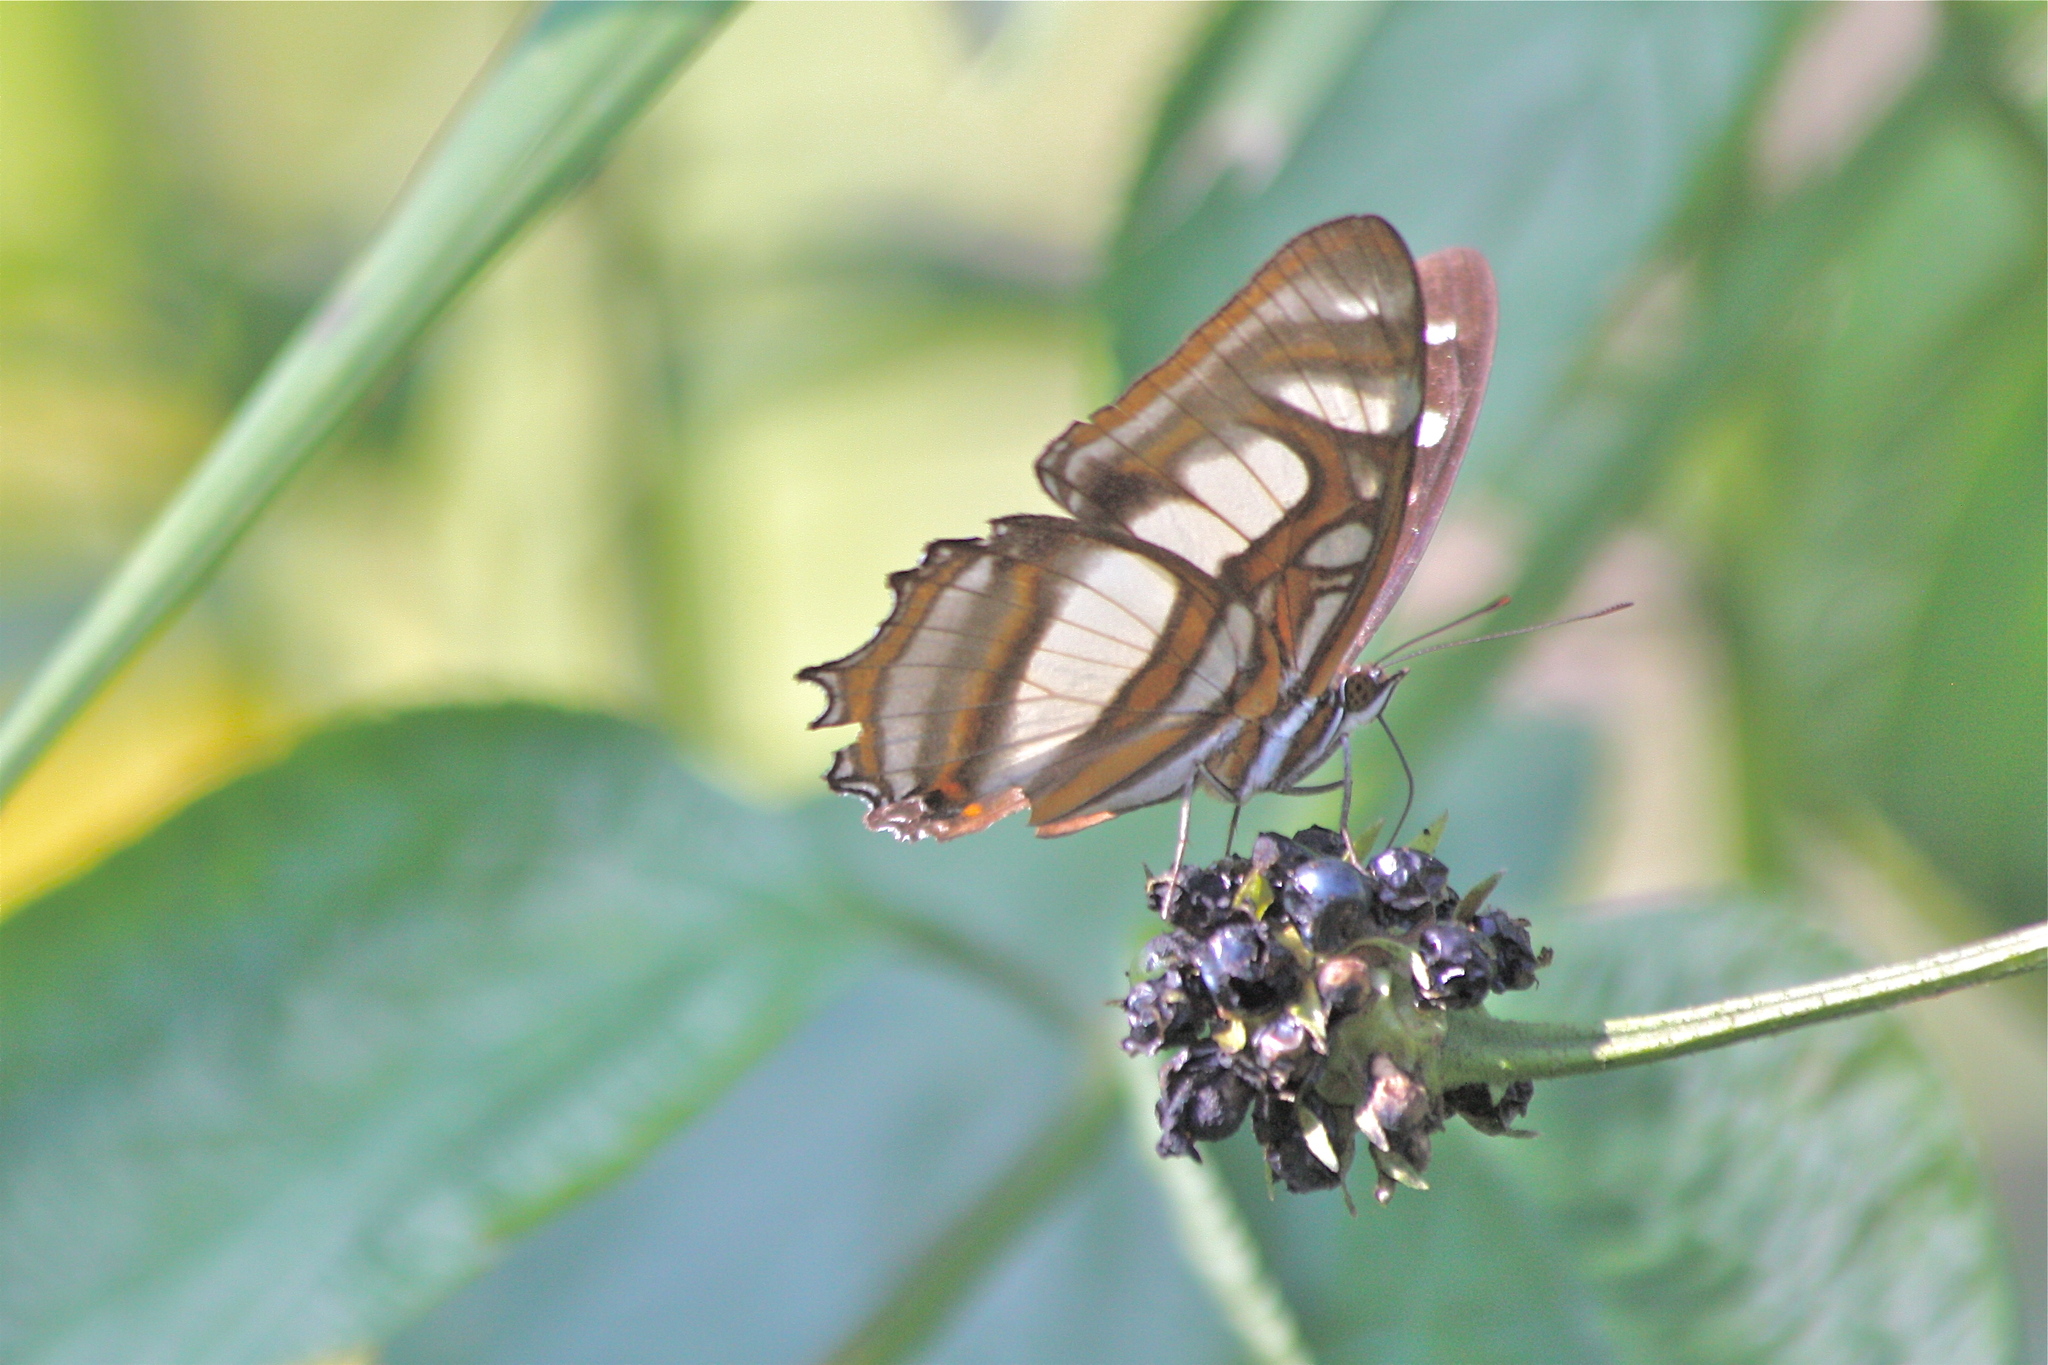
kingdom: Animalia
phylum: Arthropoda
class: Insecta
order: Lepidoptera
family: Nymphalidae
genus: Metamorpha
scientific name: Metamorpha elissa
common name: Elissa page
